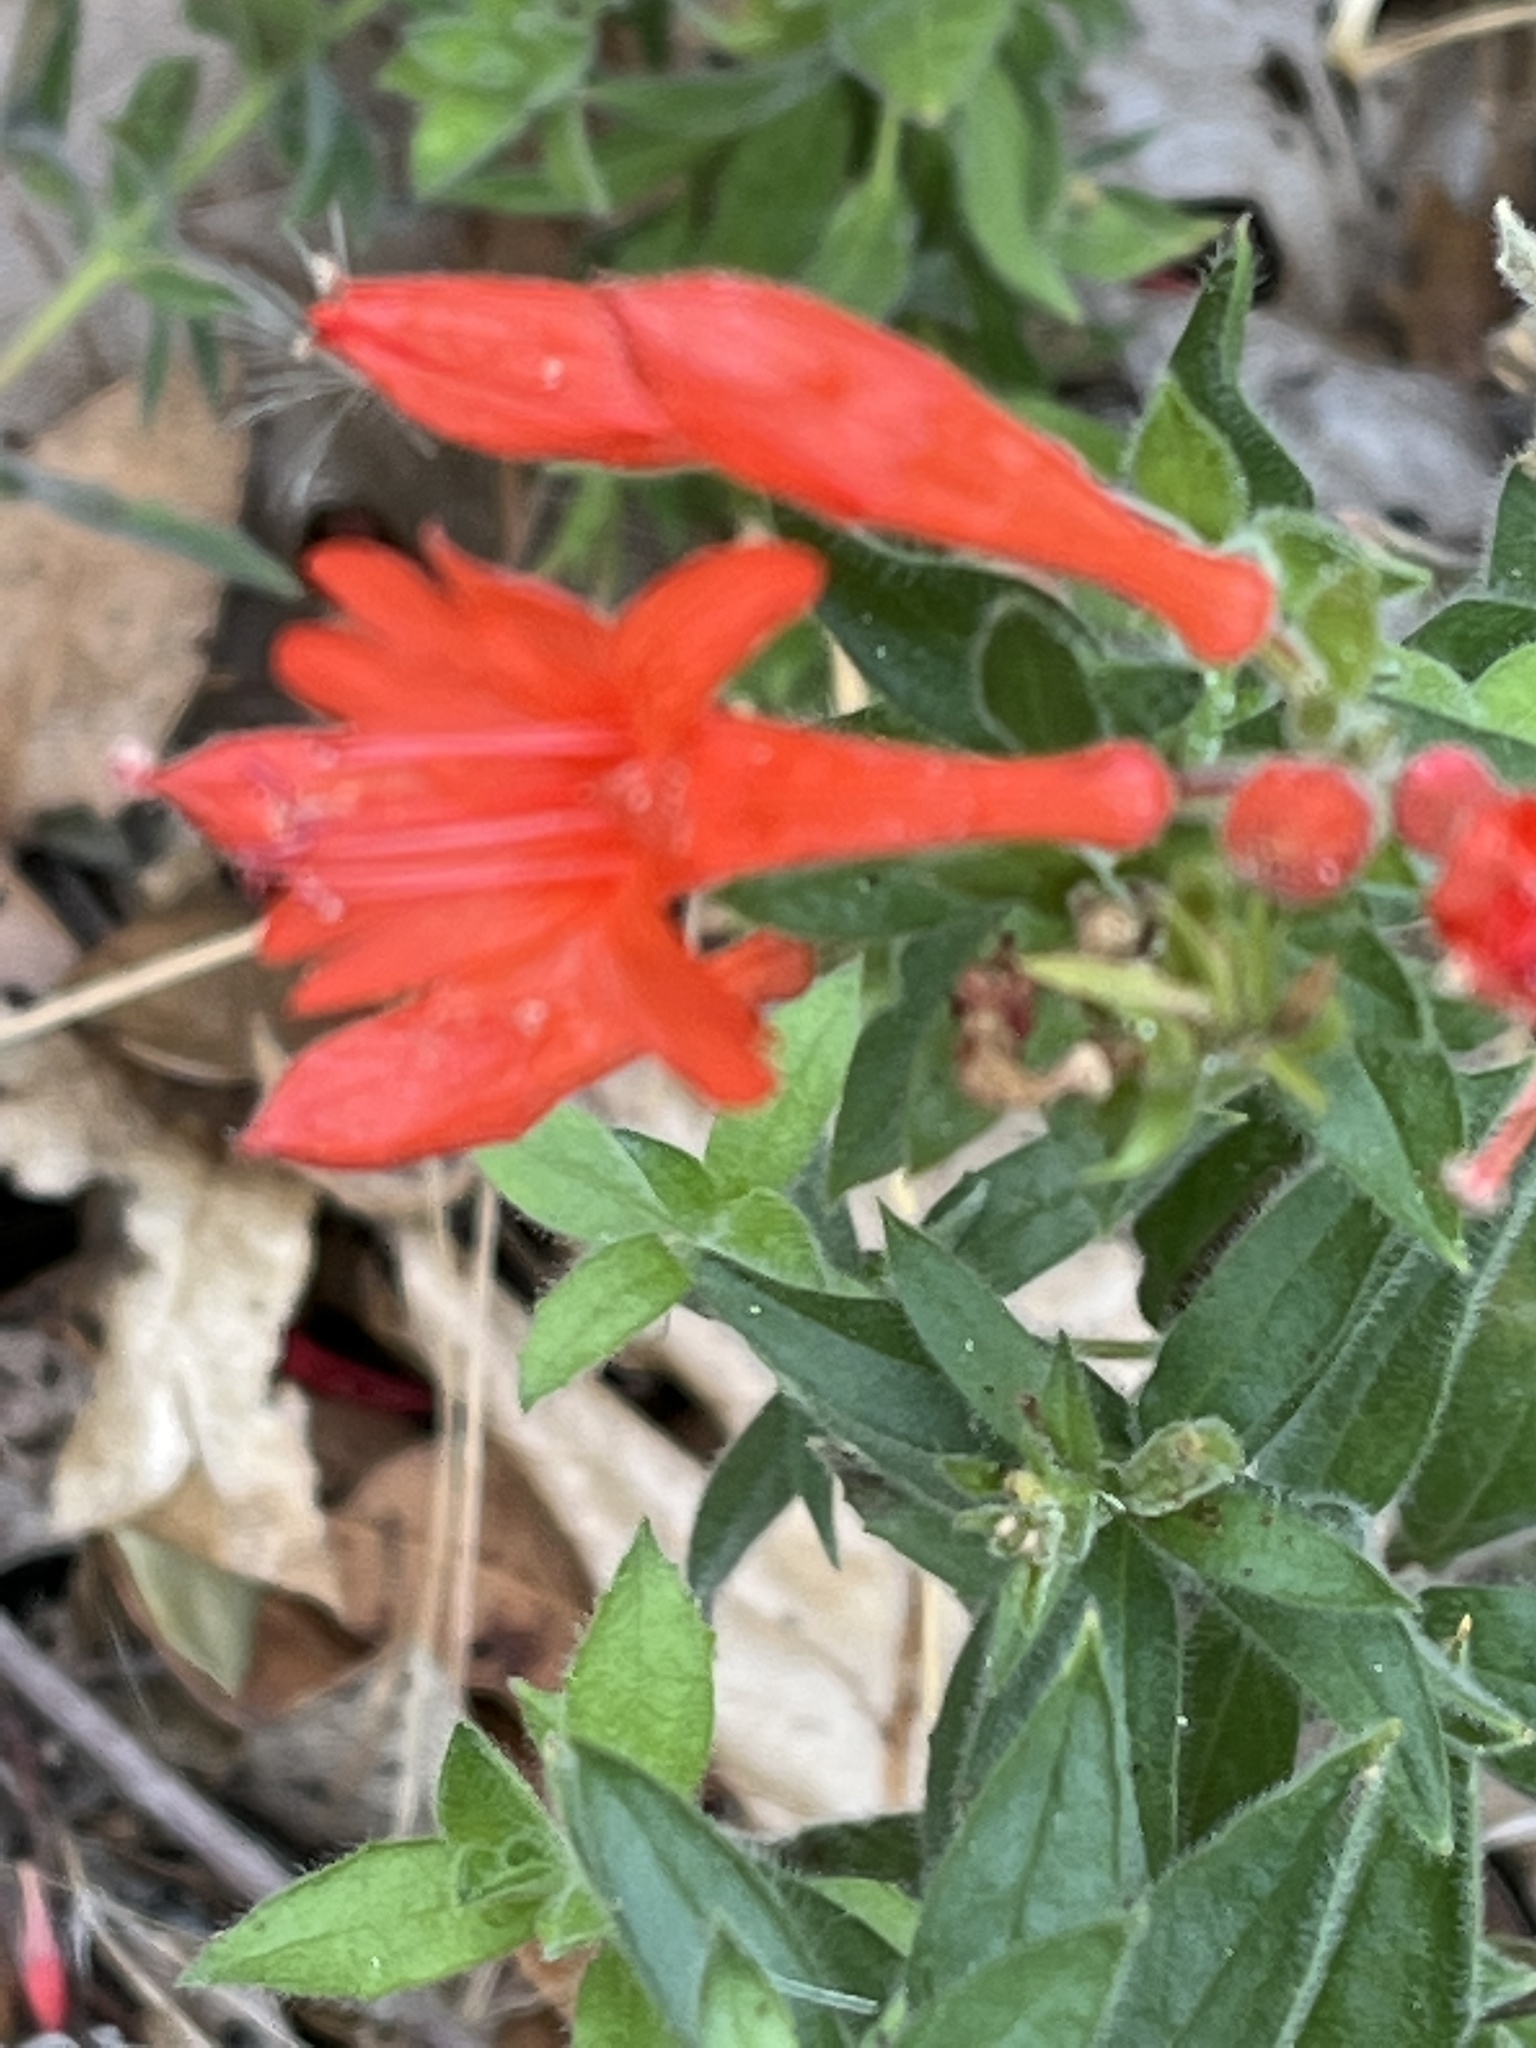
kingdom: Plantae
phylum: Tracheophyta
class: Magnoliopsida
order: Myrtales
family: Onagraceae
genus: Epilobium
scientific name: Epilobium canum
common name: California-fuchsia
